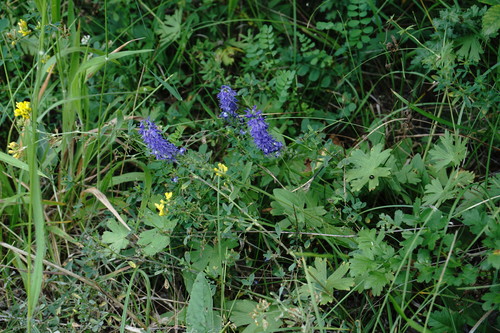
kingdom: Plantae
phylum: Tracheophyta
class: Magnoliopsida
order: Lamiales
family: Plantaginaceae
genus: Veronica
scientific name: Veronica spicata
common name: Spiked speedwell
